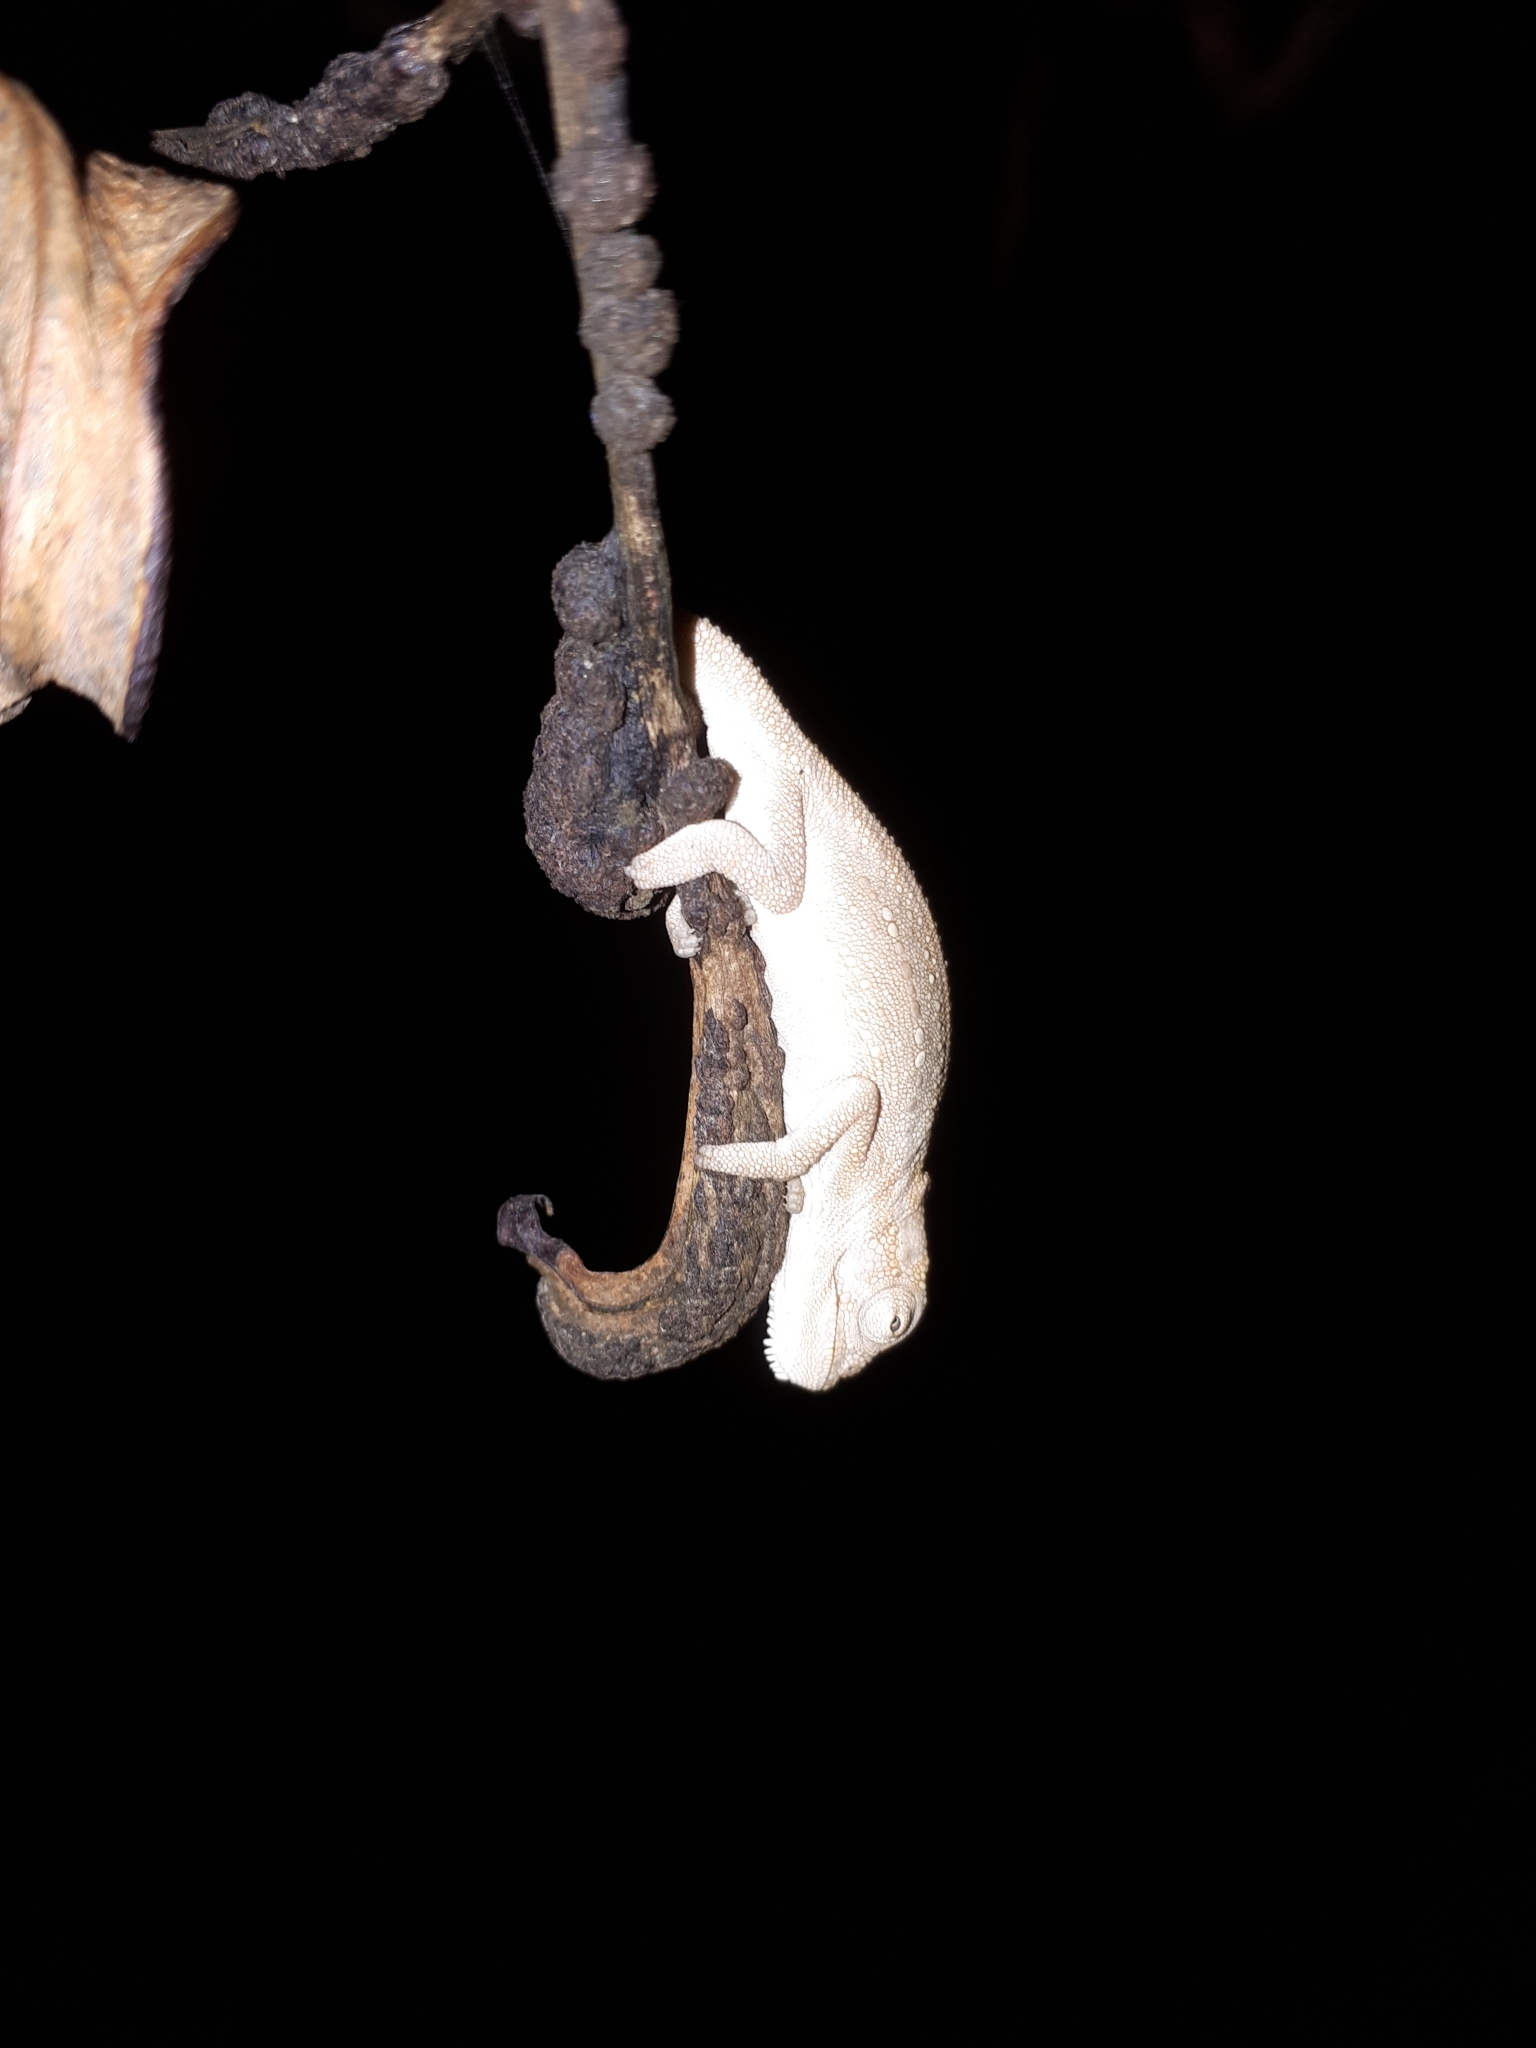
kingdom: Animalia
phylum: Chordata
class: Squamata
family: Chamaeleonidae
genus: Bradypodion
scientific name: Bradypodion pumilum
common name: Cape dwarf chameleon
